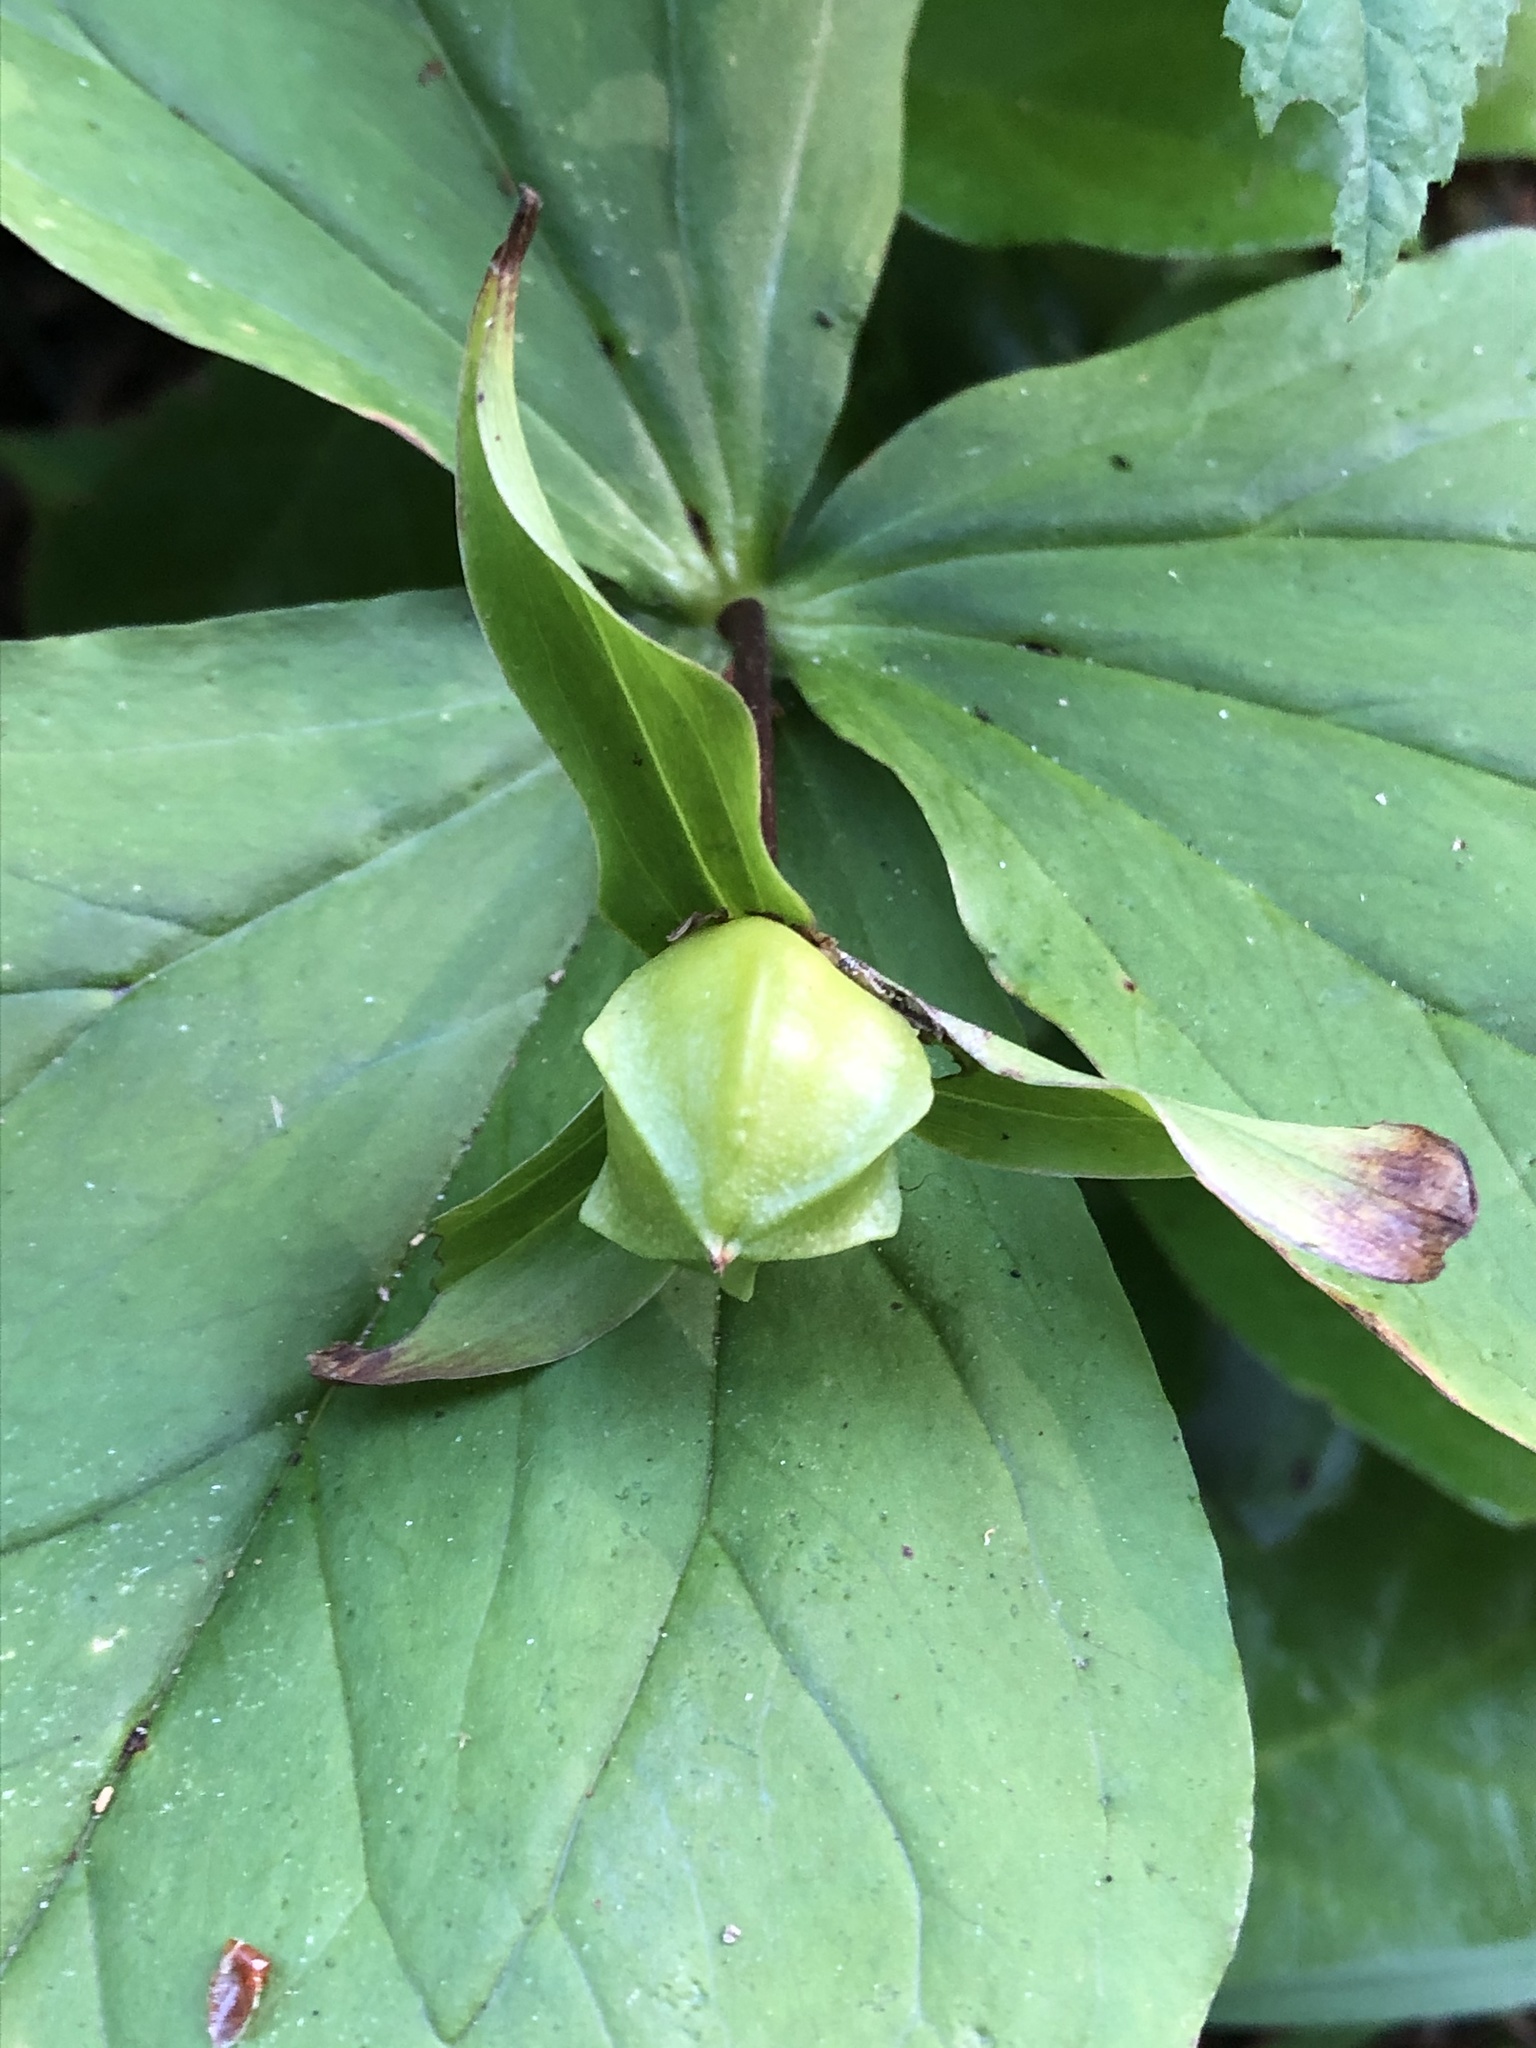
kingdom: Plantae
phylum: Tracheophyta
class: Liliopsida
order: Liliales
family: Melanthiaceae
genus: Trillium
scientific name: Trillium ovatum
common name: Pacific trillium
